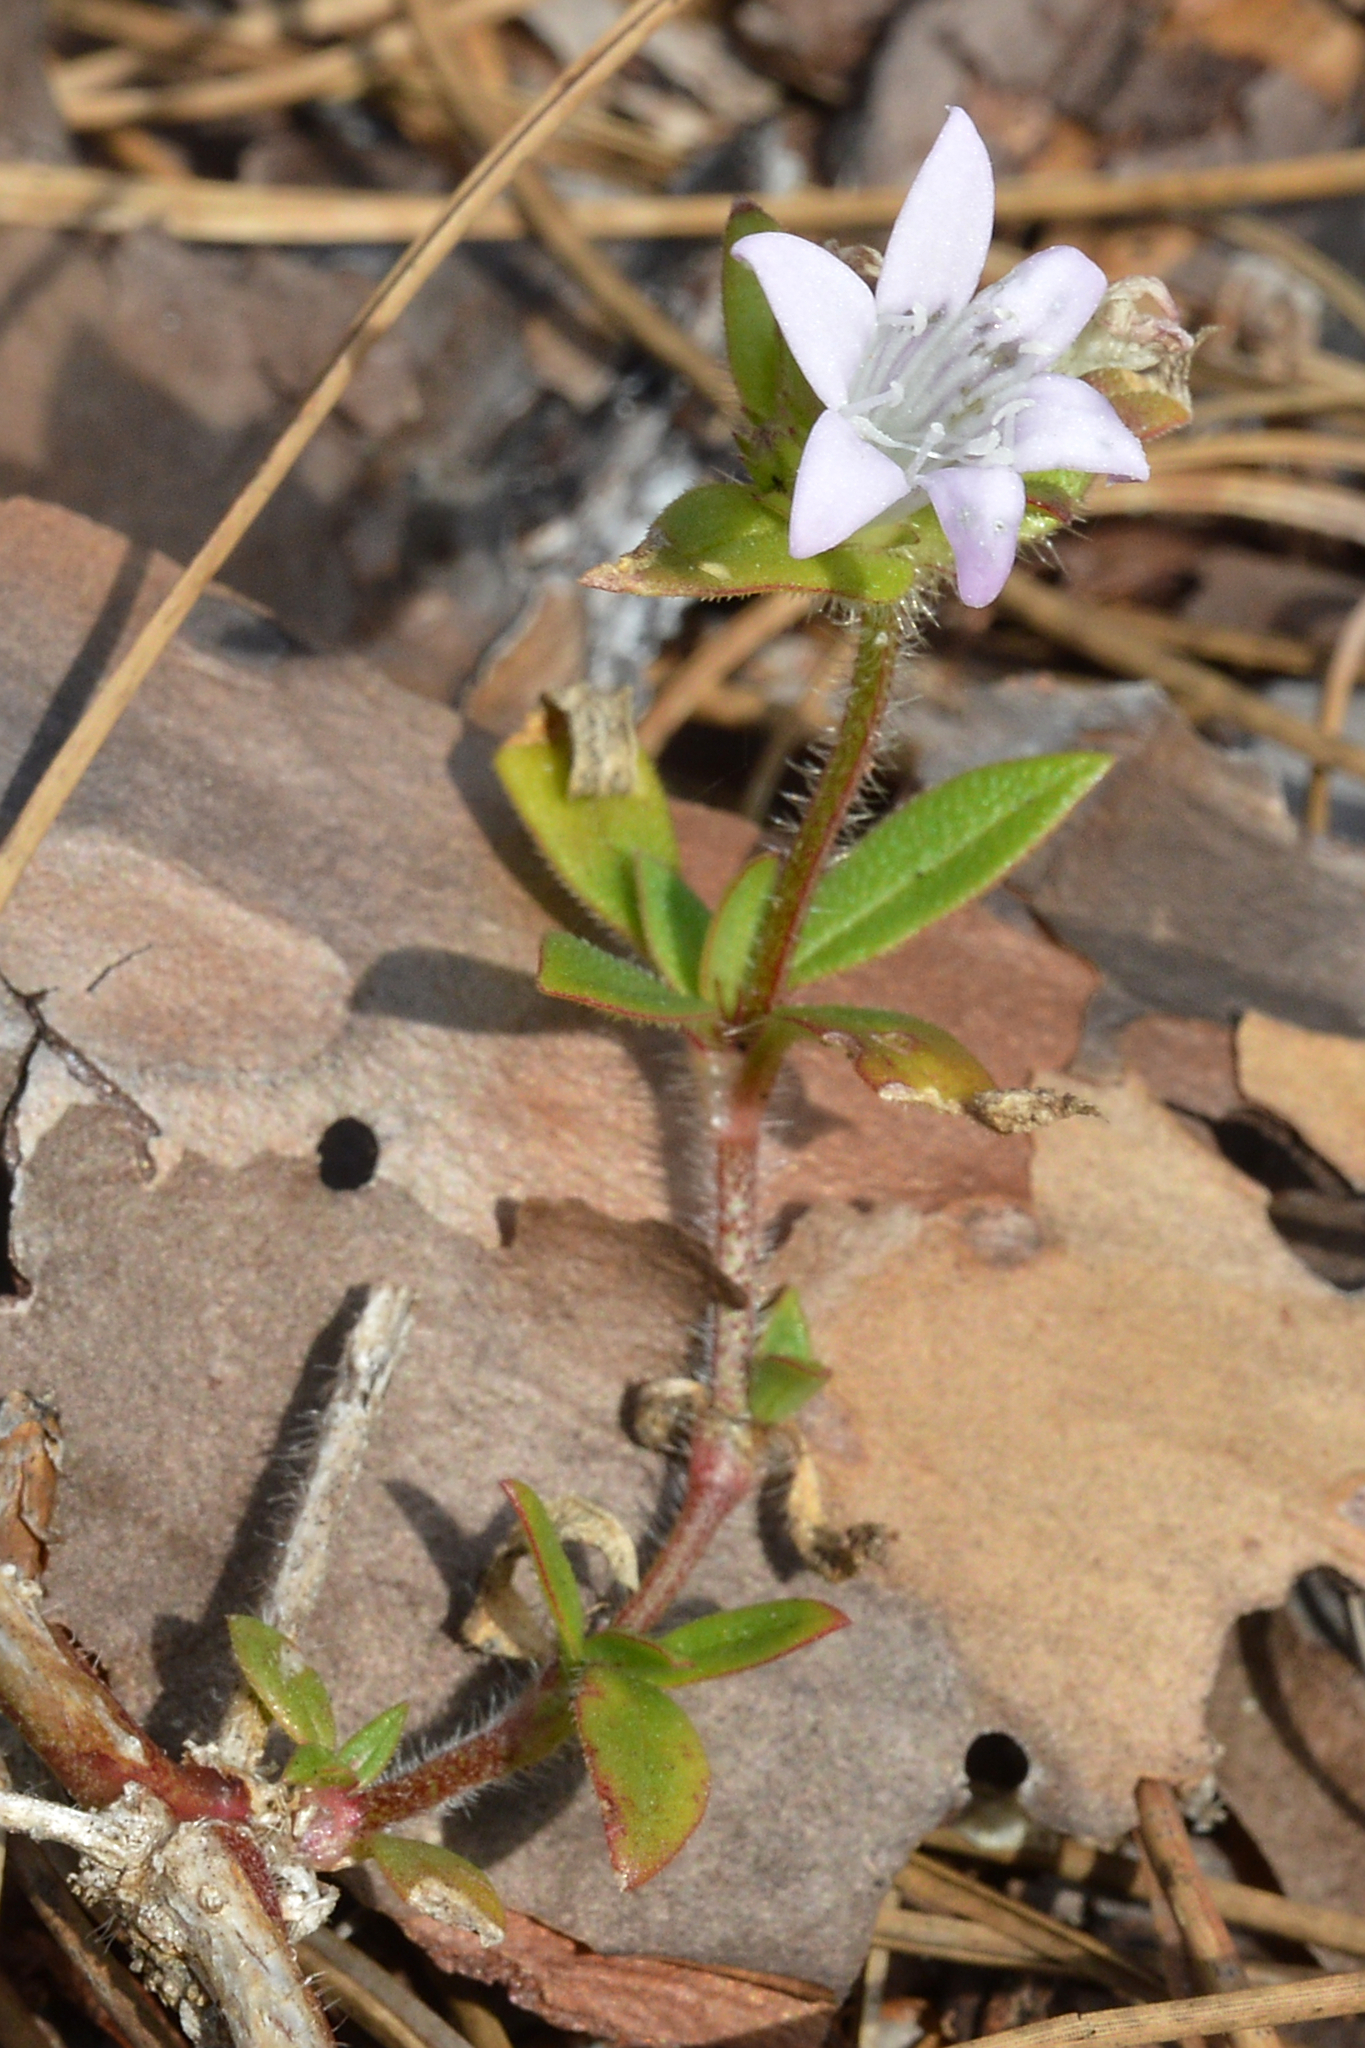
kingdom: Plantae
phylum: Tracheophyta
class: Magnoliopsida
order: Gentianales
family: Rubiaceae
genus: Richardia
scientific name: Richardia grandiflora
